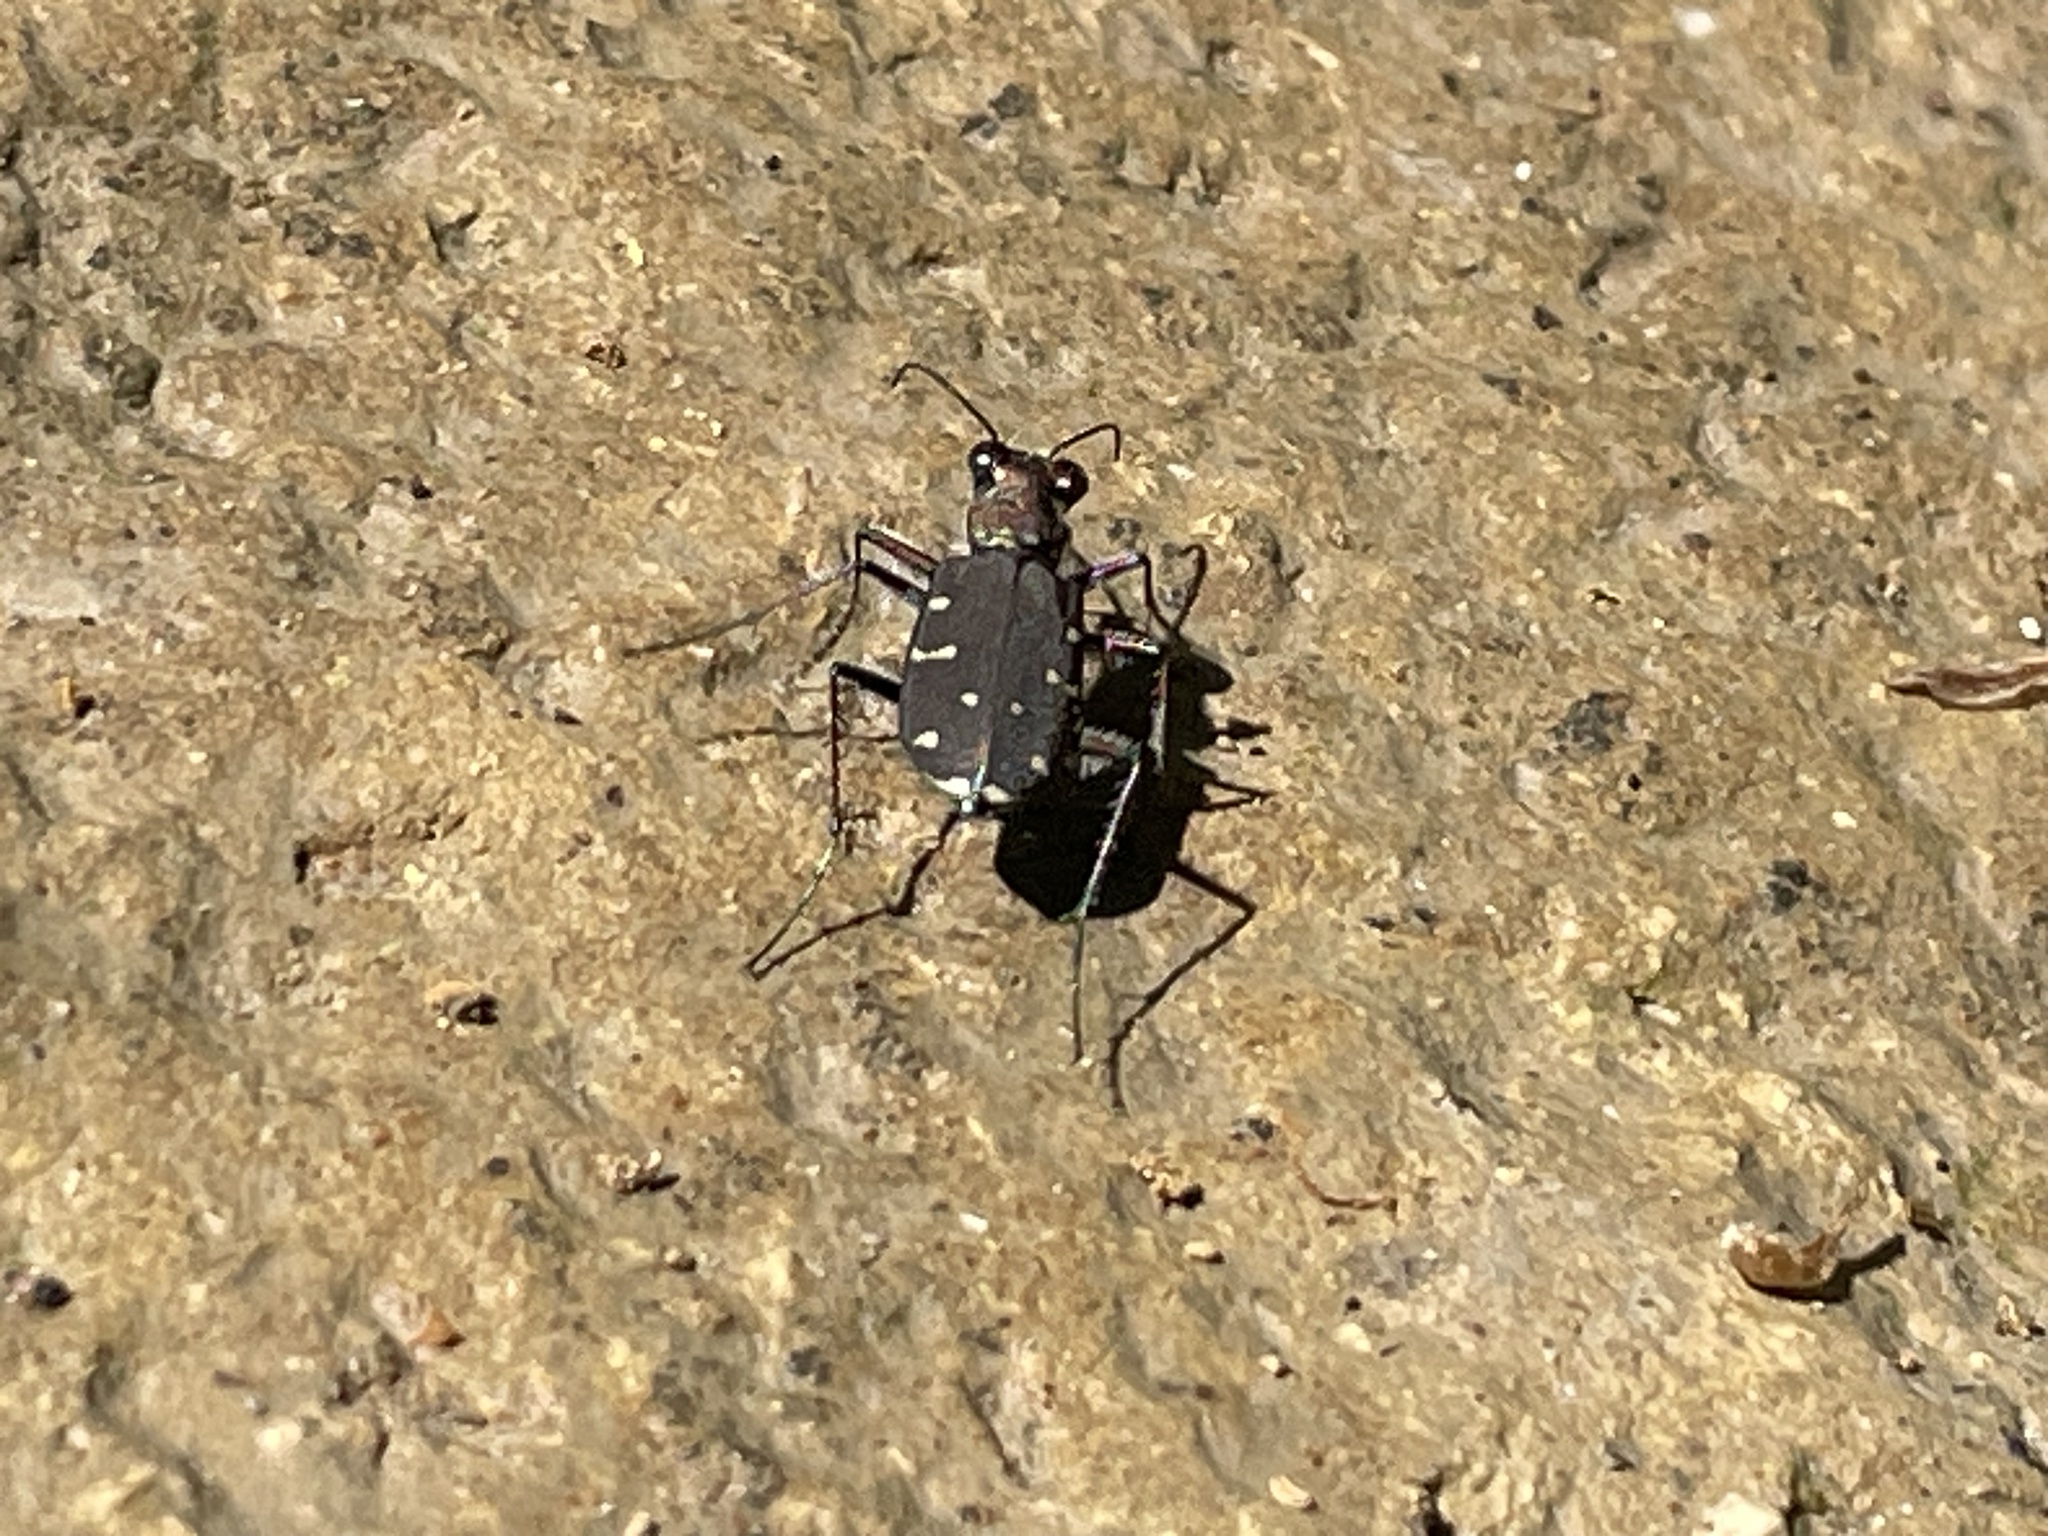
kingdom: Animalia
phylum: Arthropoda
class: Insecta
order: Coleoptera
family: Carabidae
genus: Cicindela
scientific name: Cicindela duodecimguttata
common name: Twelve-spotted tiger beetle
